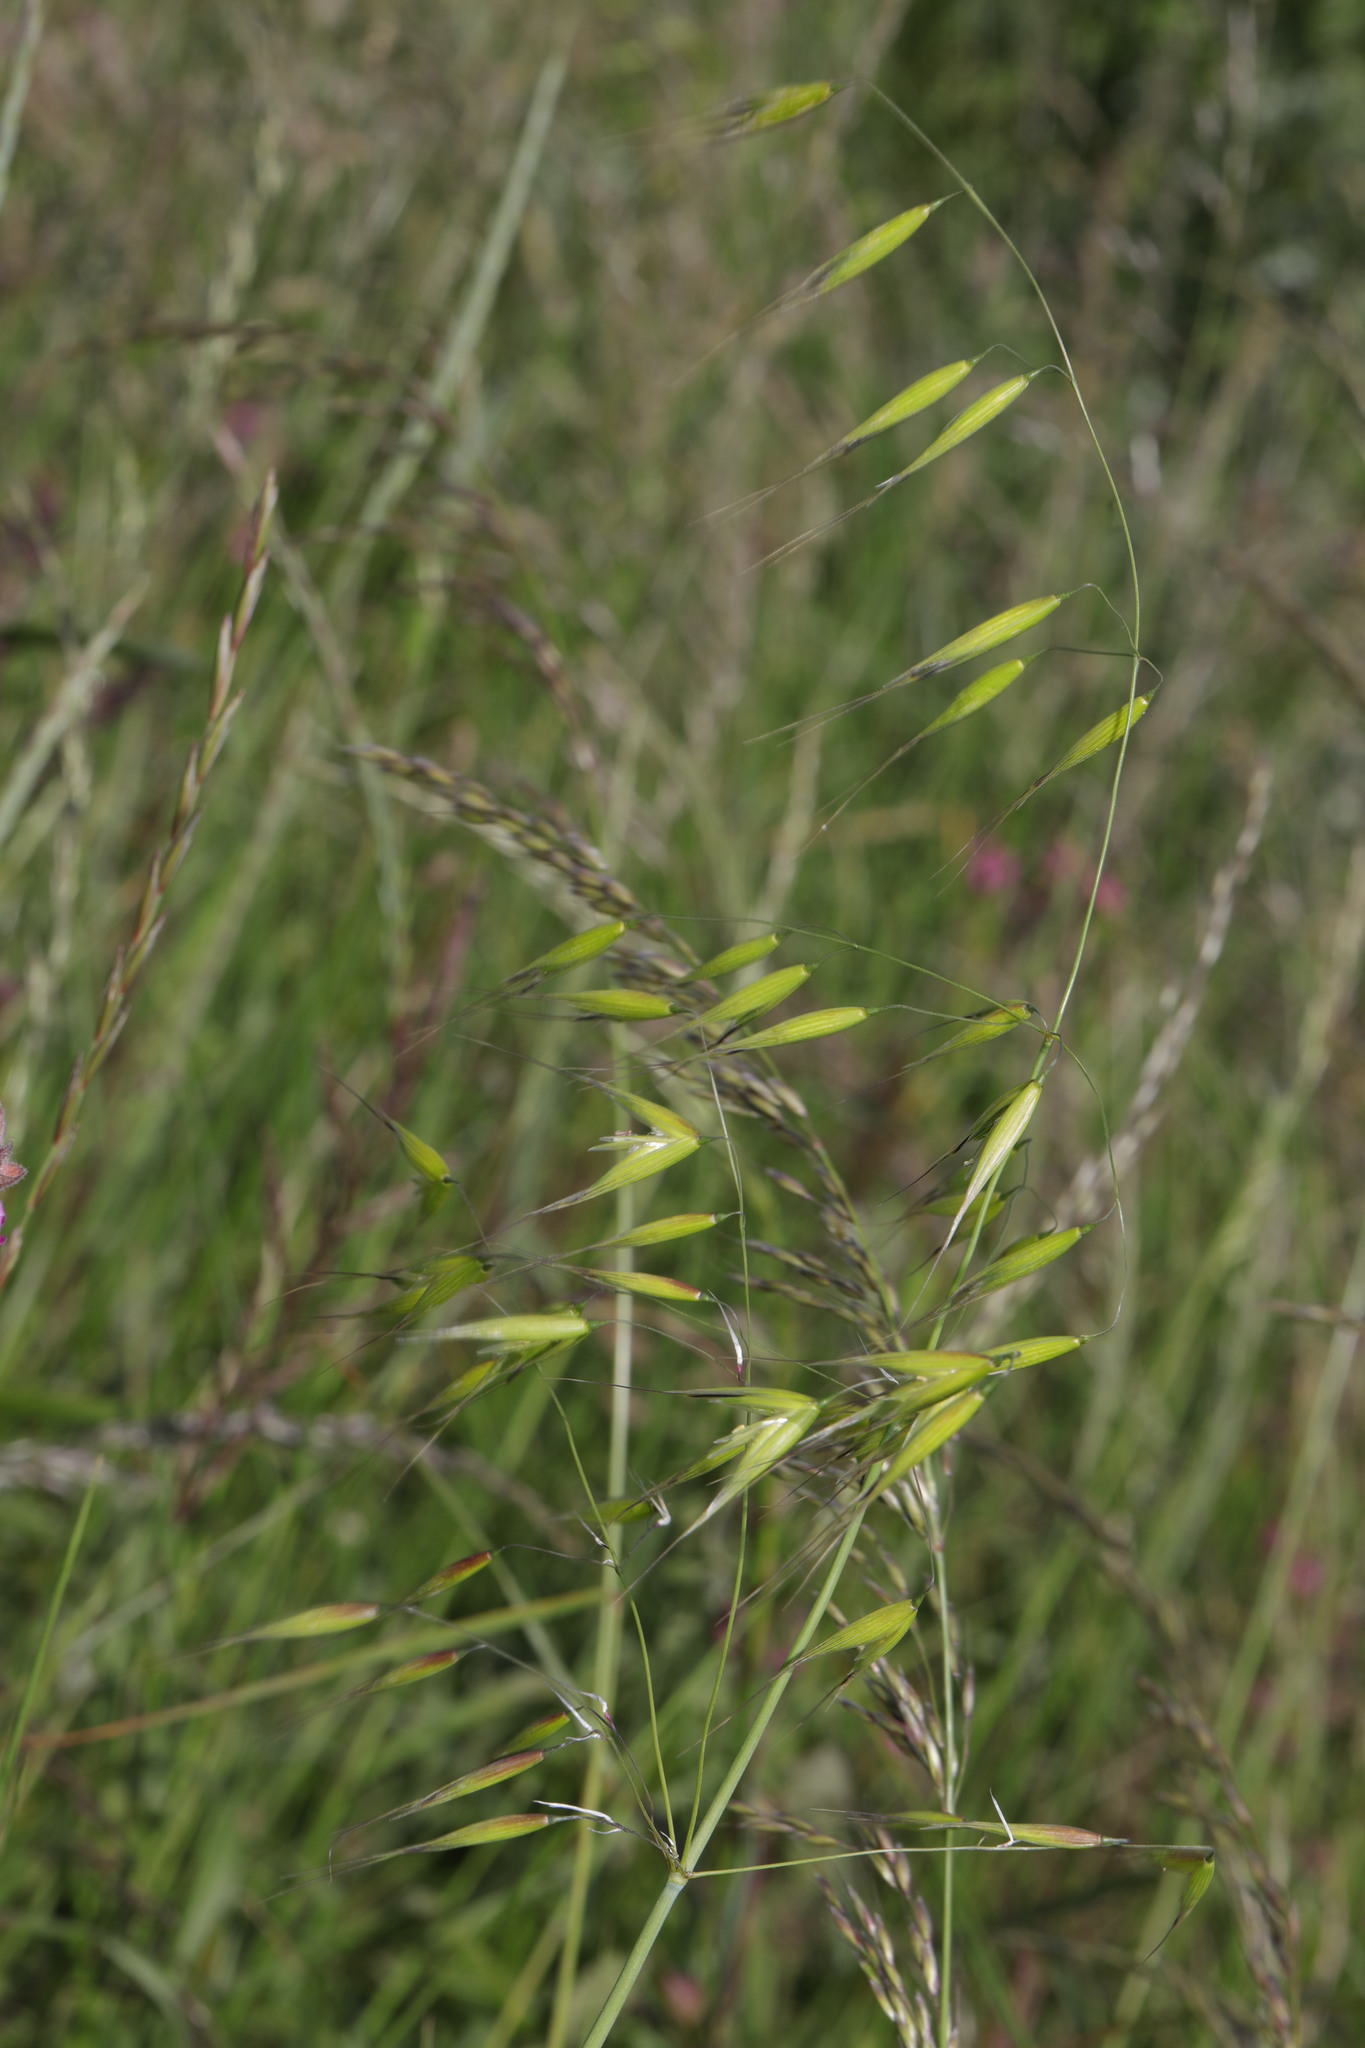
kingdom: Plantae
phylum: Tracheophyta
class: Liliopsida
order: Poales
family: Poaceae
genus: Avena
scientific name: Avena fatua
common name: Wild oat
